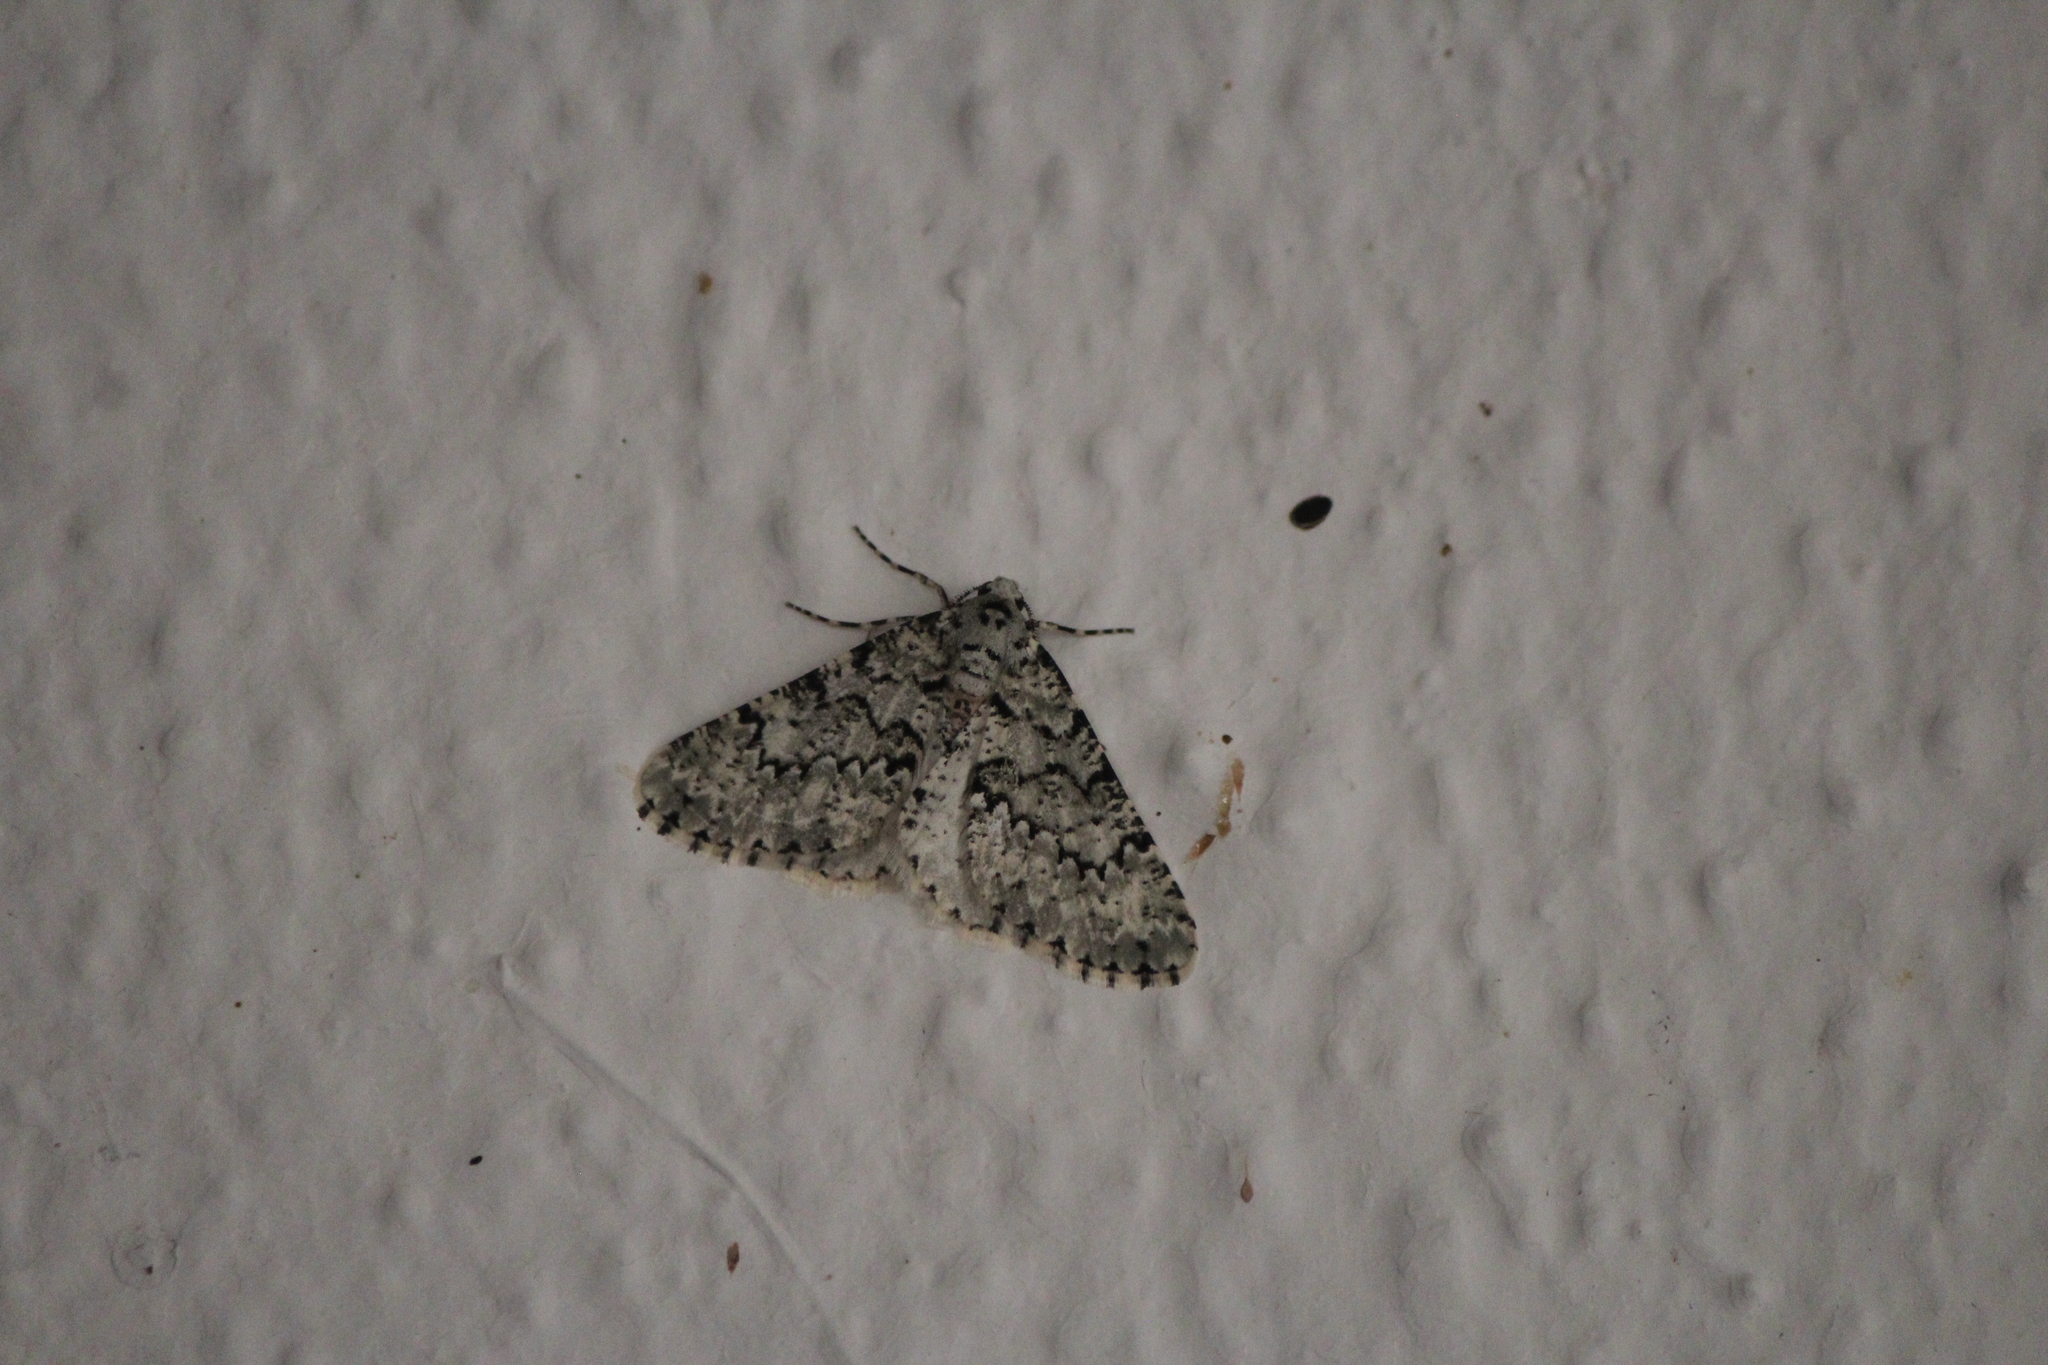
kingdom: Animalia
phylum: Arthropoda
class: Insecta
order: Lepidoptera
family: Geometridae
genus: Tracheops
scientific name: Tracheops bolteri
